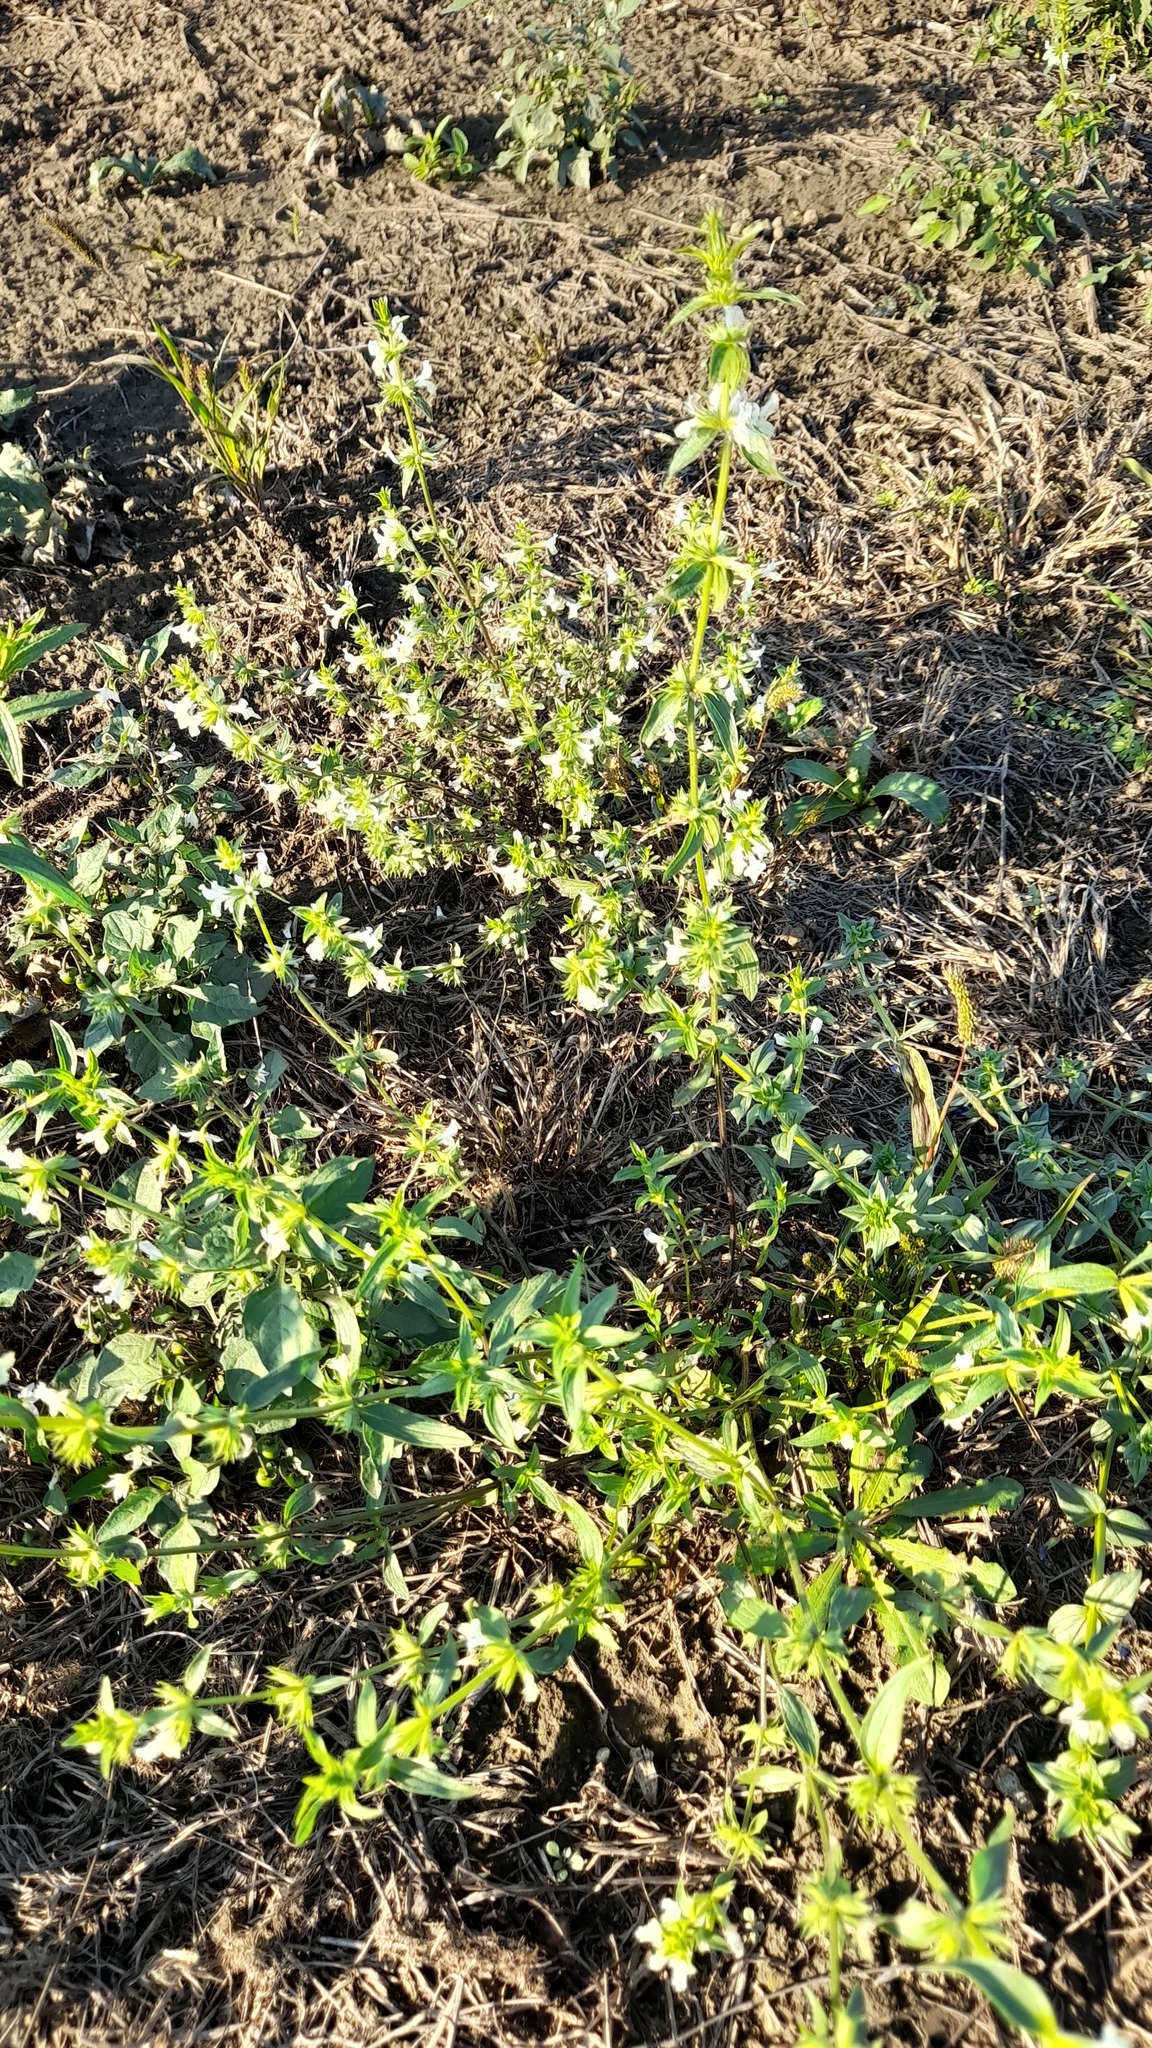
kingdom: Plantae
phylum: Tracheophyta
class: Magnoliopsida
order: Lamiales
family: Lamiaceae
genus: Stachys
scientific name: Stachys annua
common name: Annual yellow-woundwort
